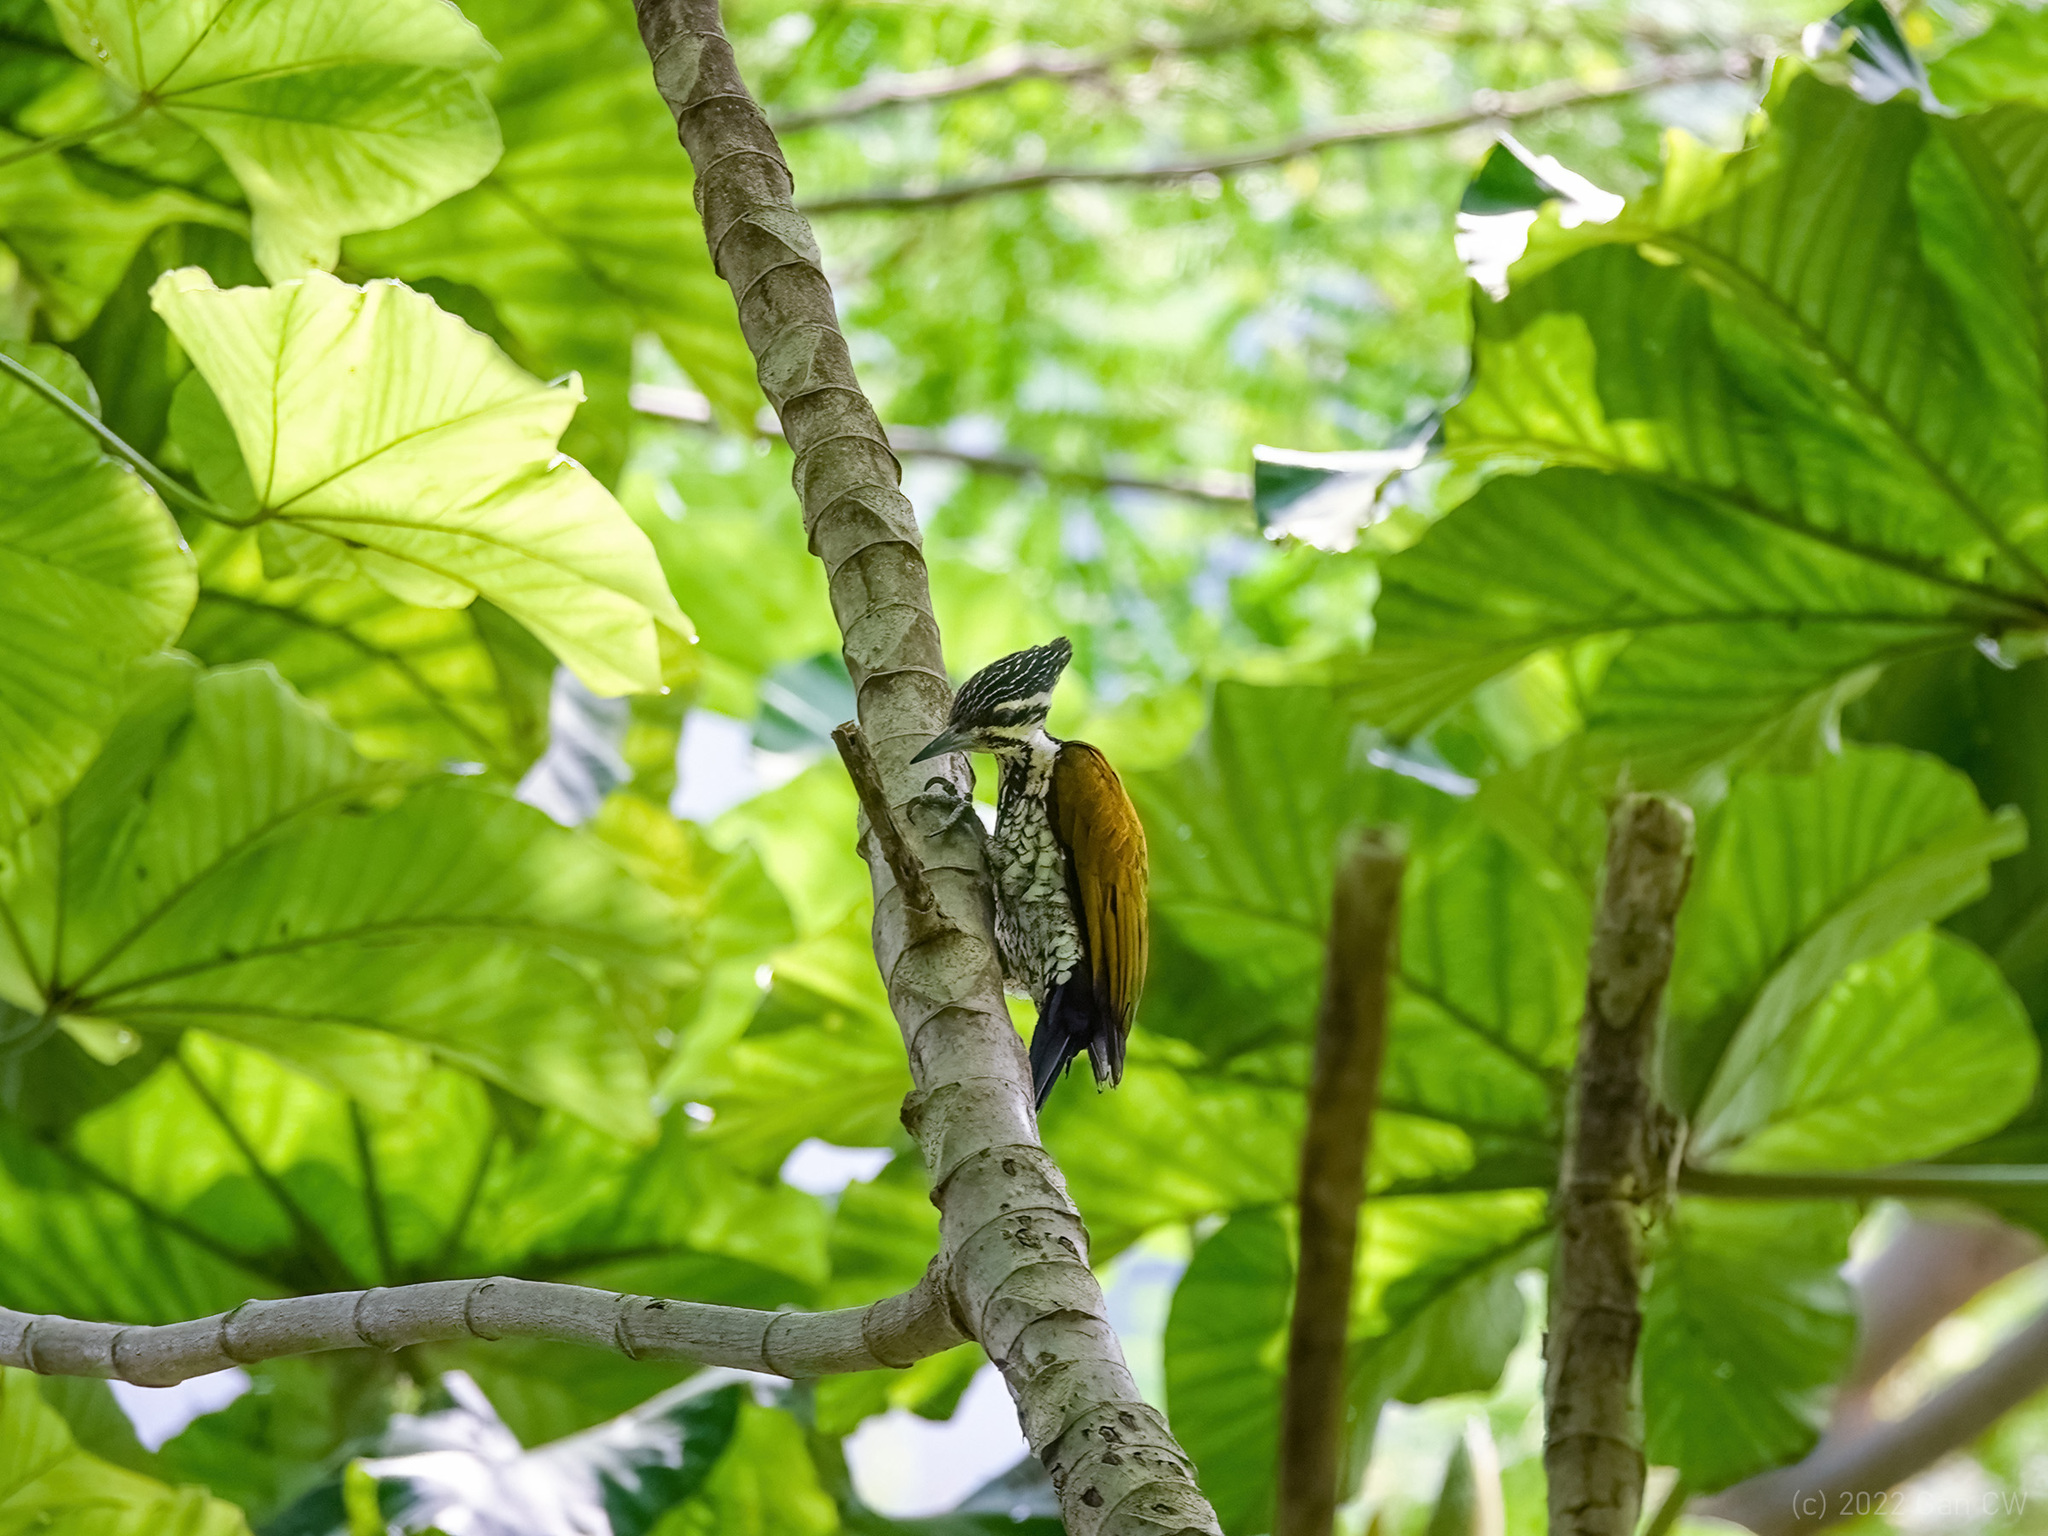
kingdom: Animalia
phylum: Chordata
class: Aves
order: Piciformes
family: Picidae
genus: Dinopium
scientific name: Dinopium javanense
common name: Common flameback
